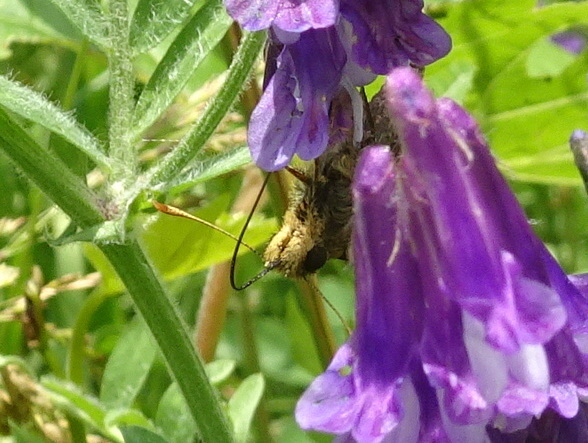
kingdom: Animalia
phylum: Arthropoda
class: Insecta
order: Lepidoptera
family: Hesperiidae
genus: Lon
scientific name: Lon hobomok
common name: Hobomok skipper
